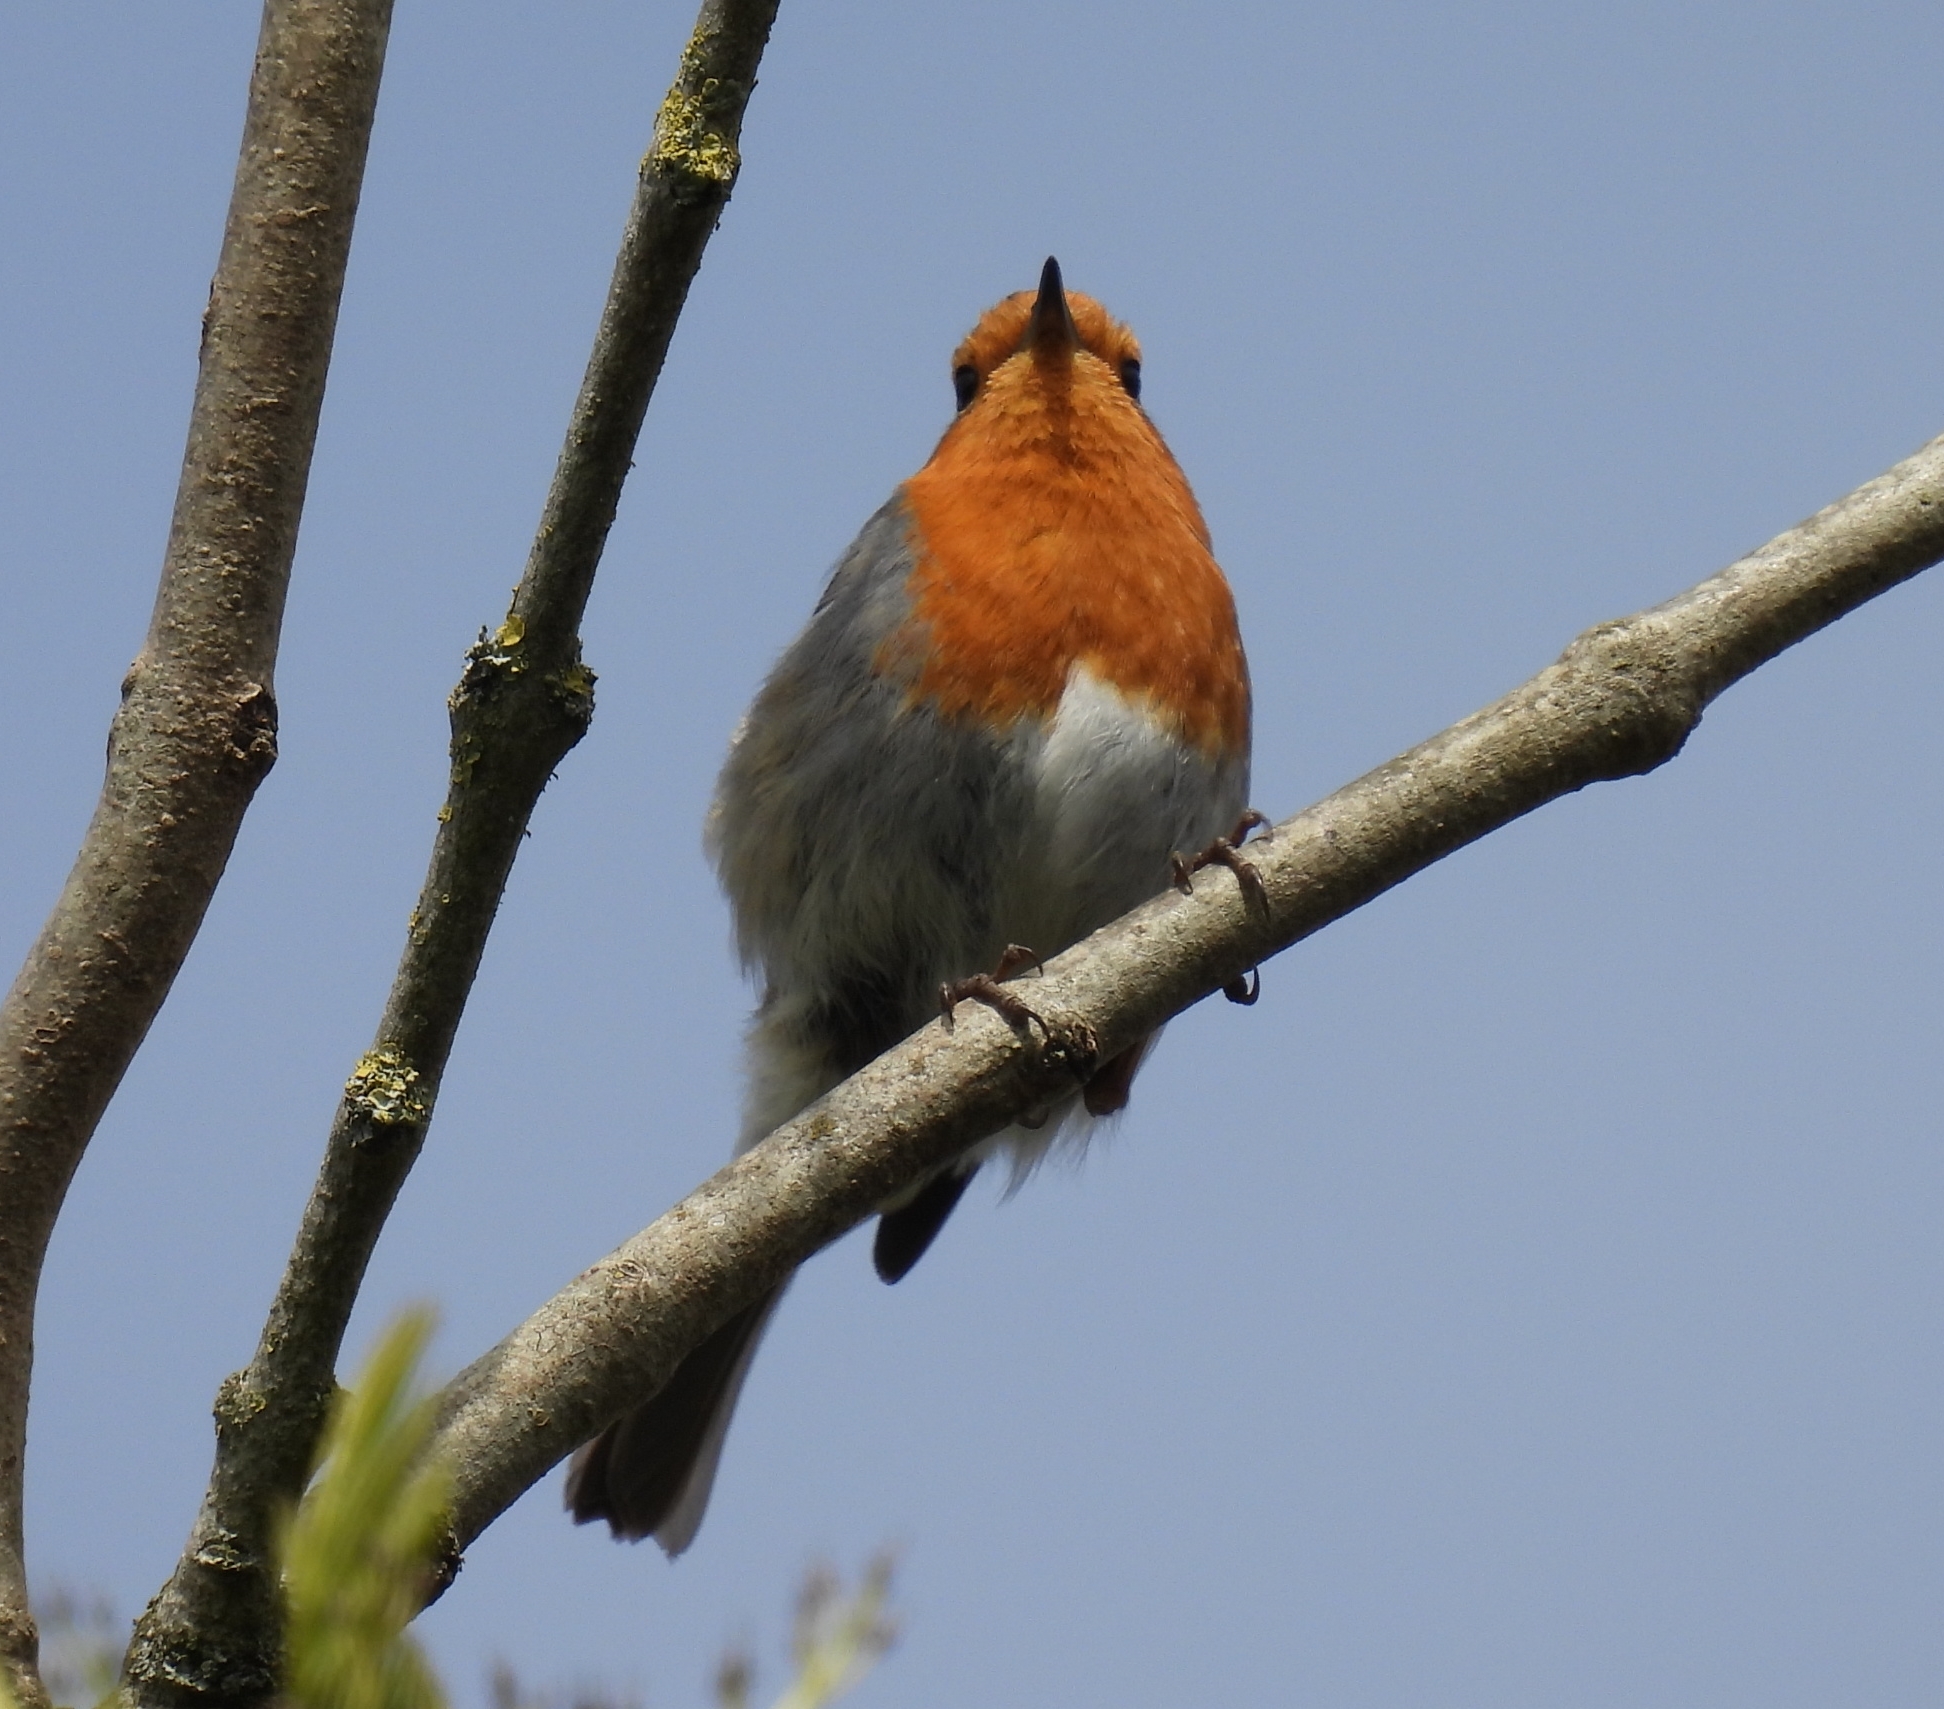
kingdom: Animalia
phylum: Chordata
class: Aves
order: Passeriformes
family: Muscicapidae
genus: Erithacus
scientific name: Erithacus rubecula
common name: European robin
